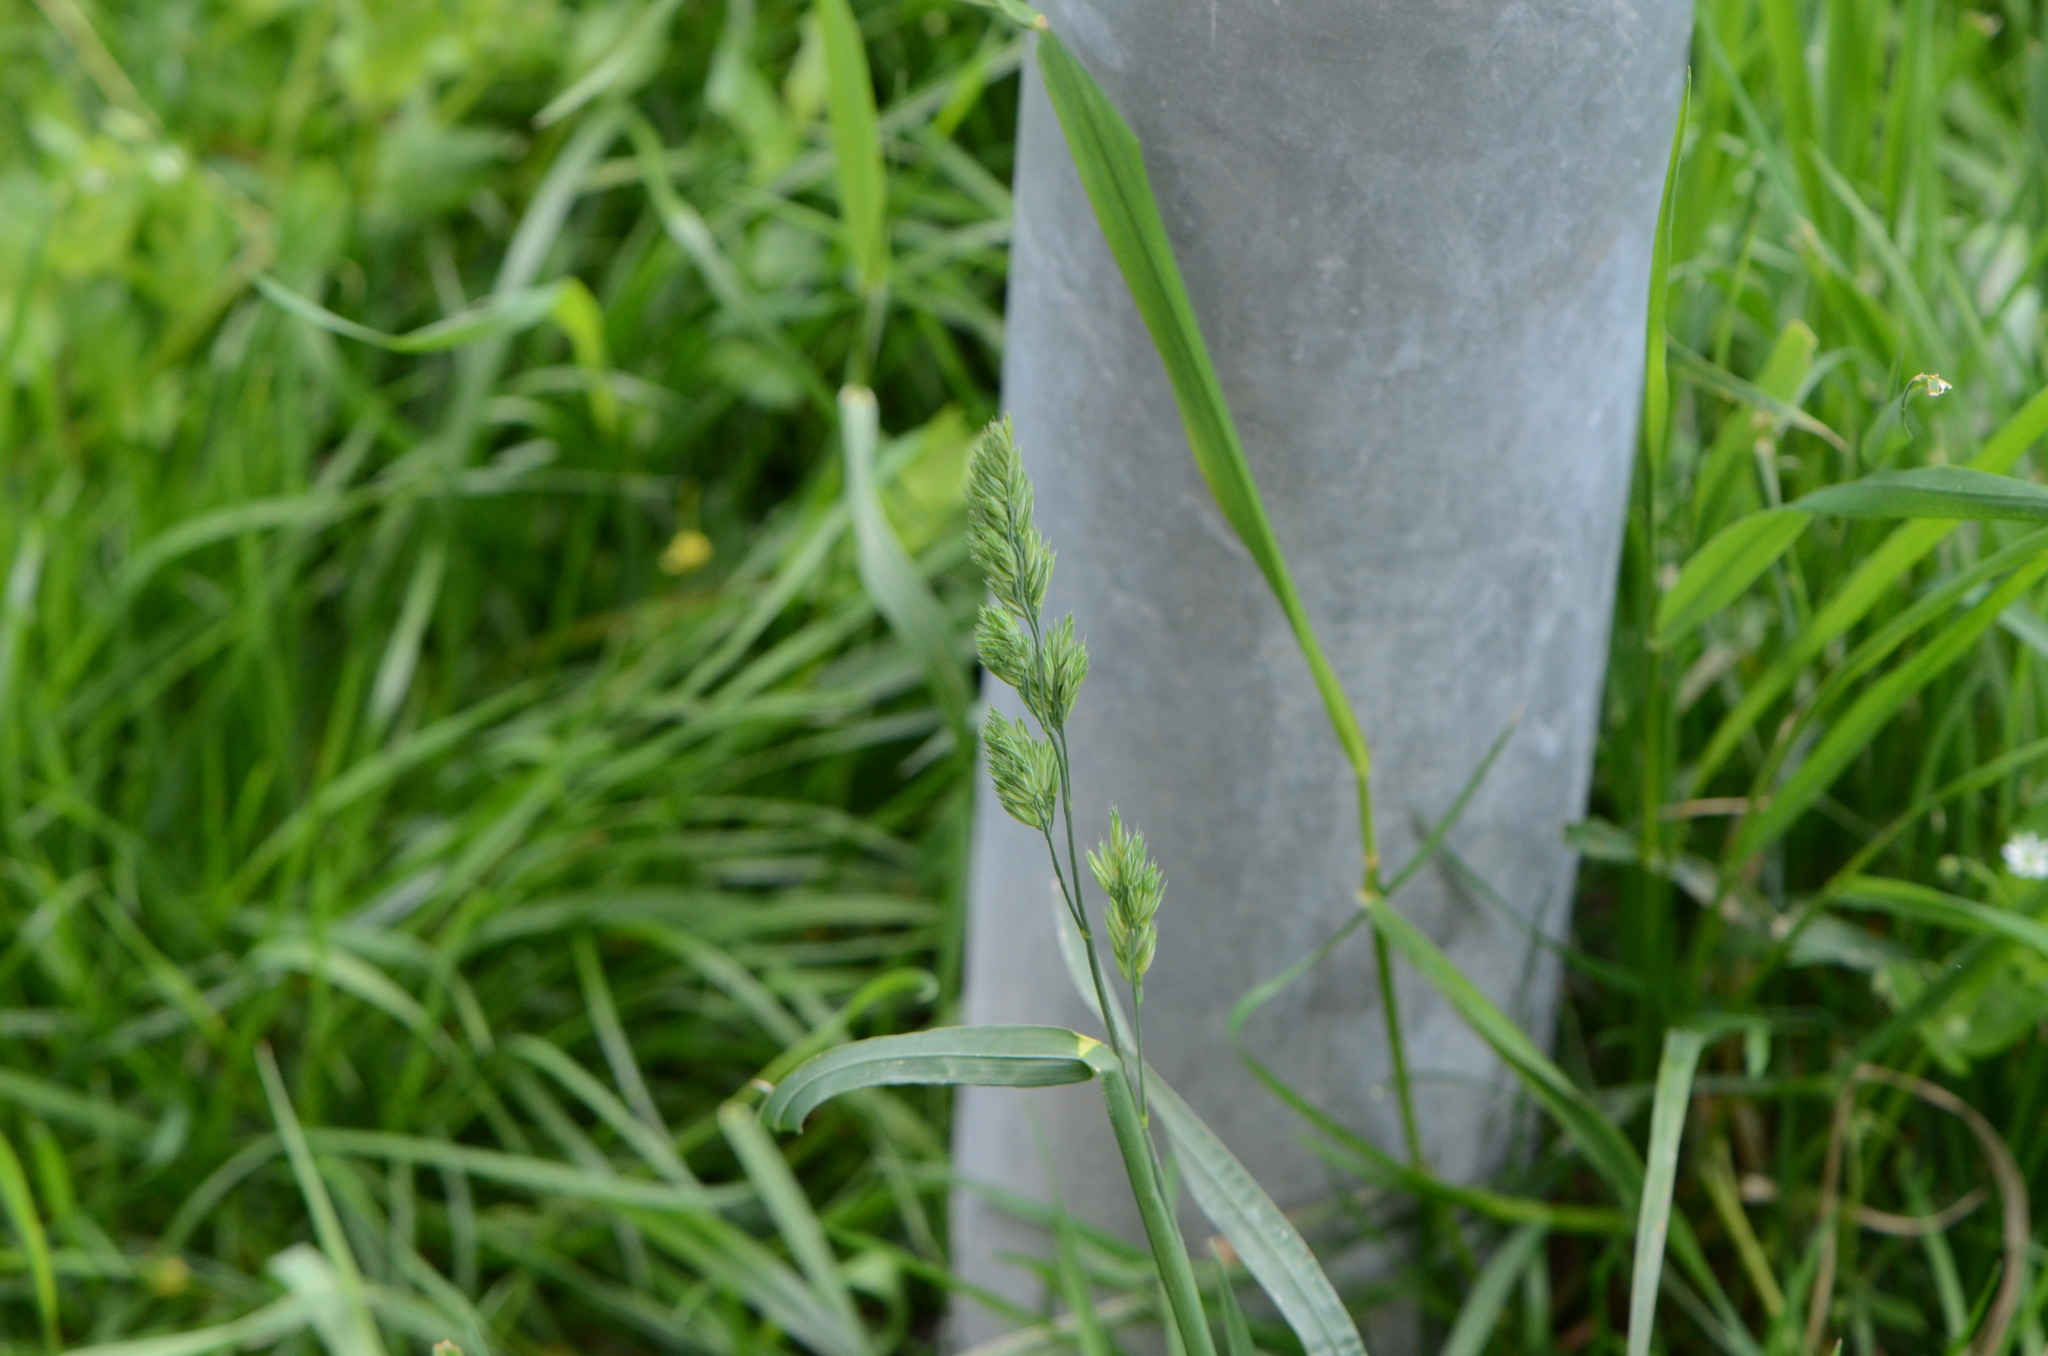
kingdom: Plantae
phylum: Tracheophyta
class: Liliopsida
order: Poales
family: Poaceae
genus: Dactylis
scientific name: Dactylis glomerata
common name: Orchardgrass
